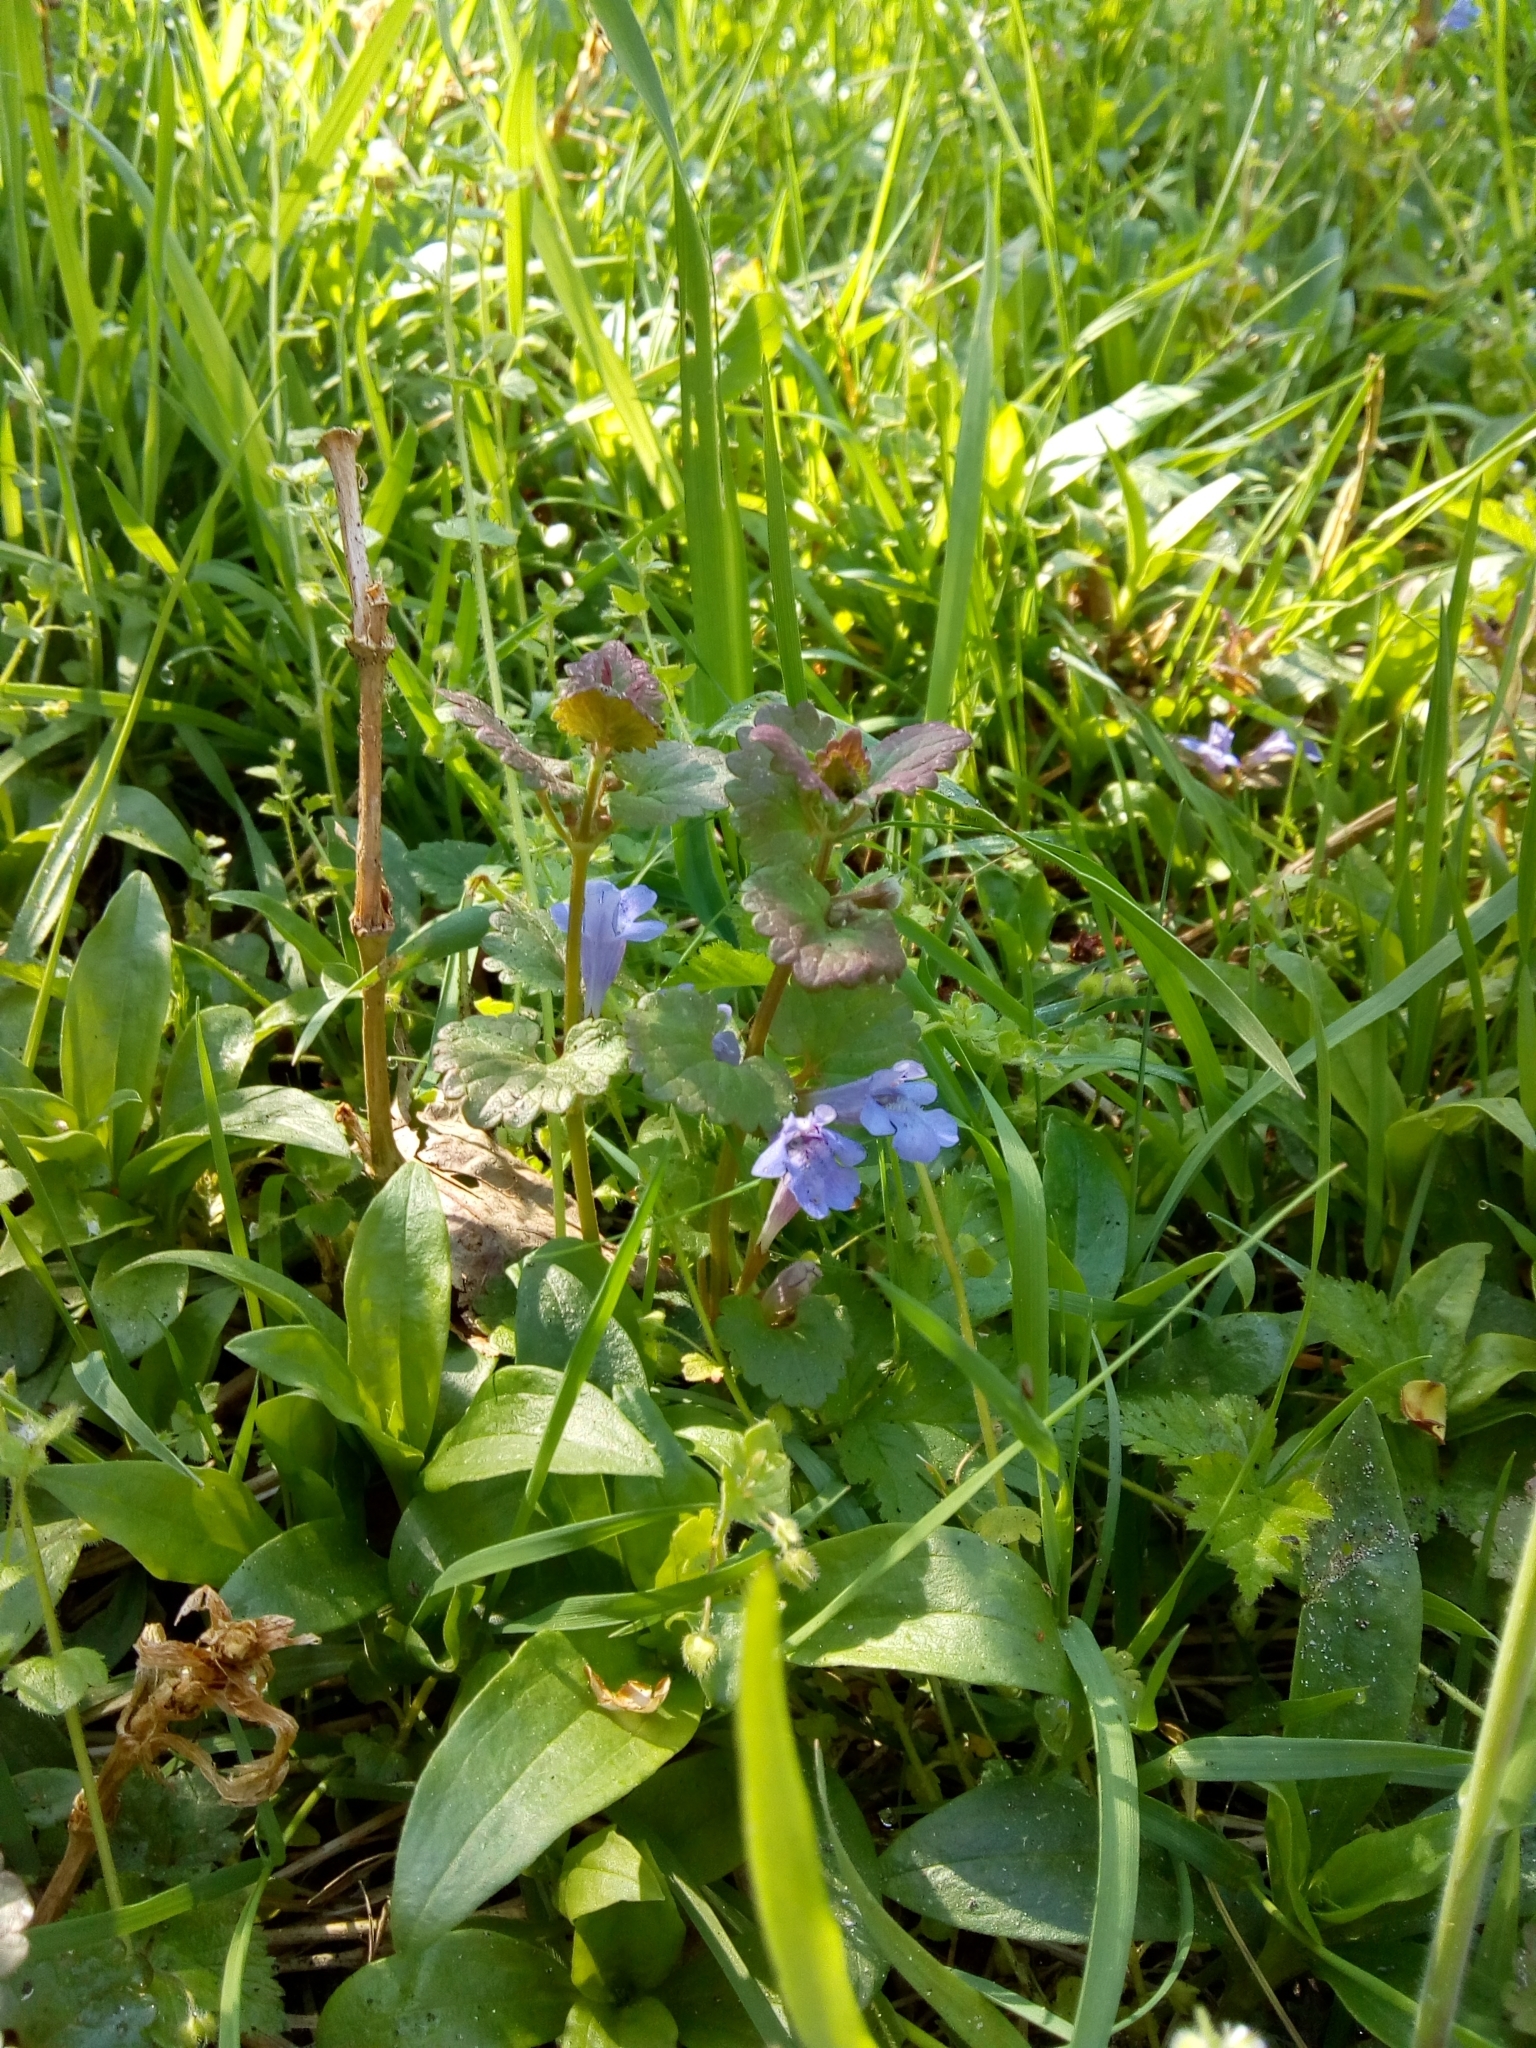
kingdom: Plantae
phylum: Tracheophyta
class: Magnoliopsida
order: Lamiales
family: Lamiaceae
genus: Glechoma
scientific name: Glechoma hederacea
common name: Ground ivy
